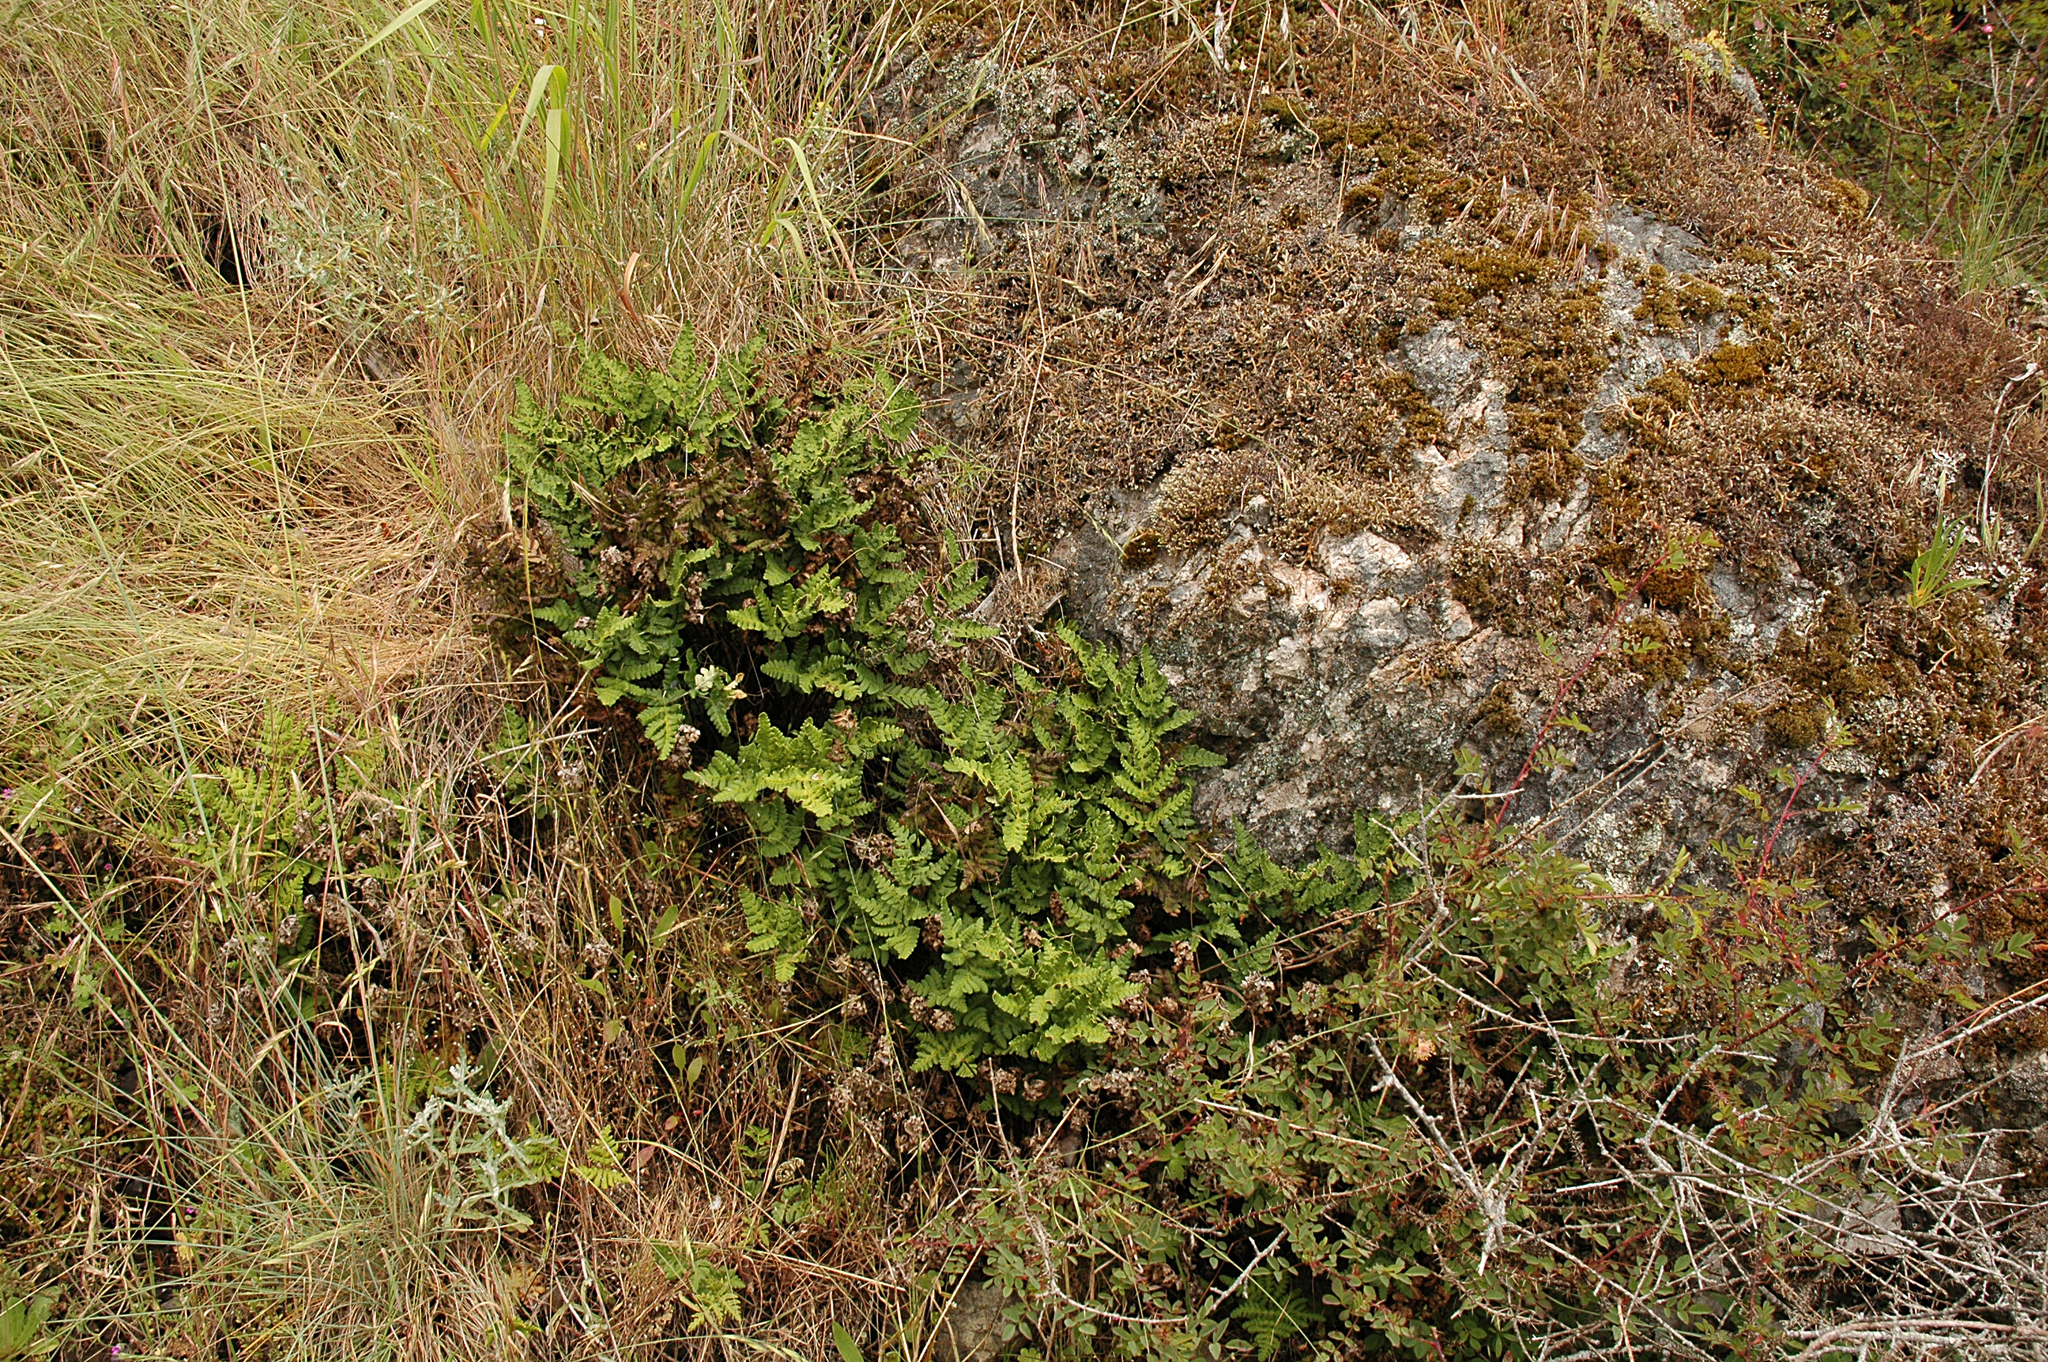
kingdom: Plantae
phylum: Tracheophyta
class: Polypodiopsida
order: Polypodiales
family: Pteridaceae
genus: Pentagramma
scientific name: Pentagramma triangularis
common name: Gold fern
